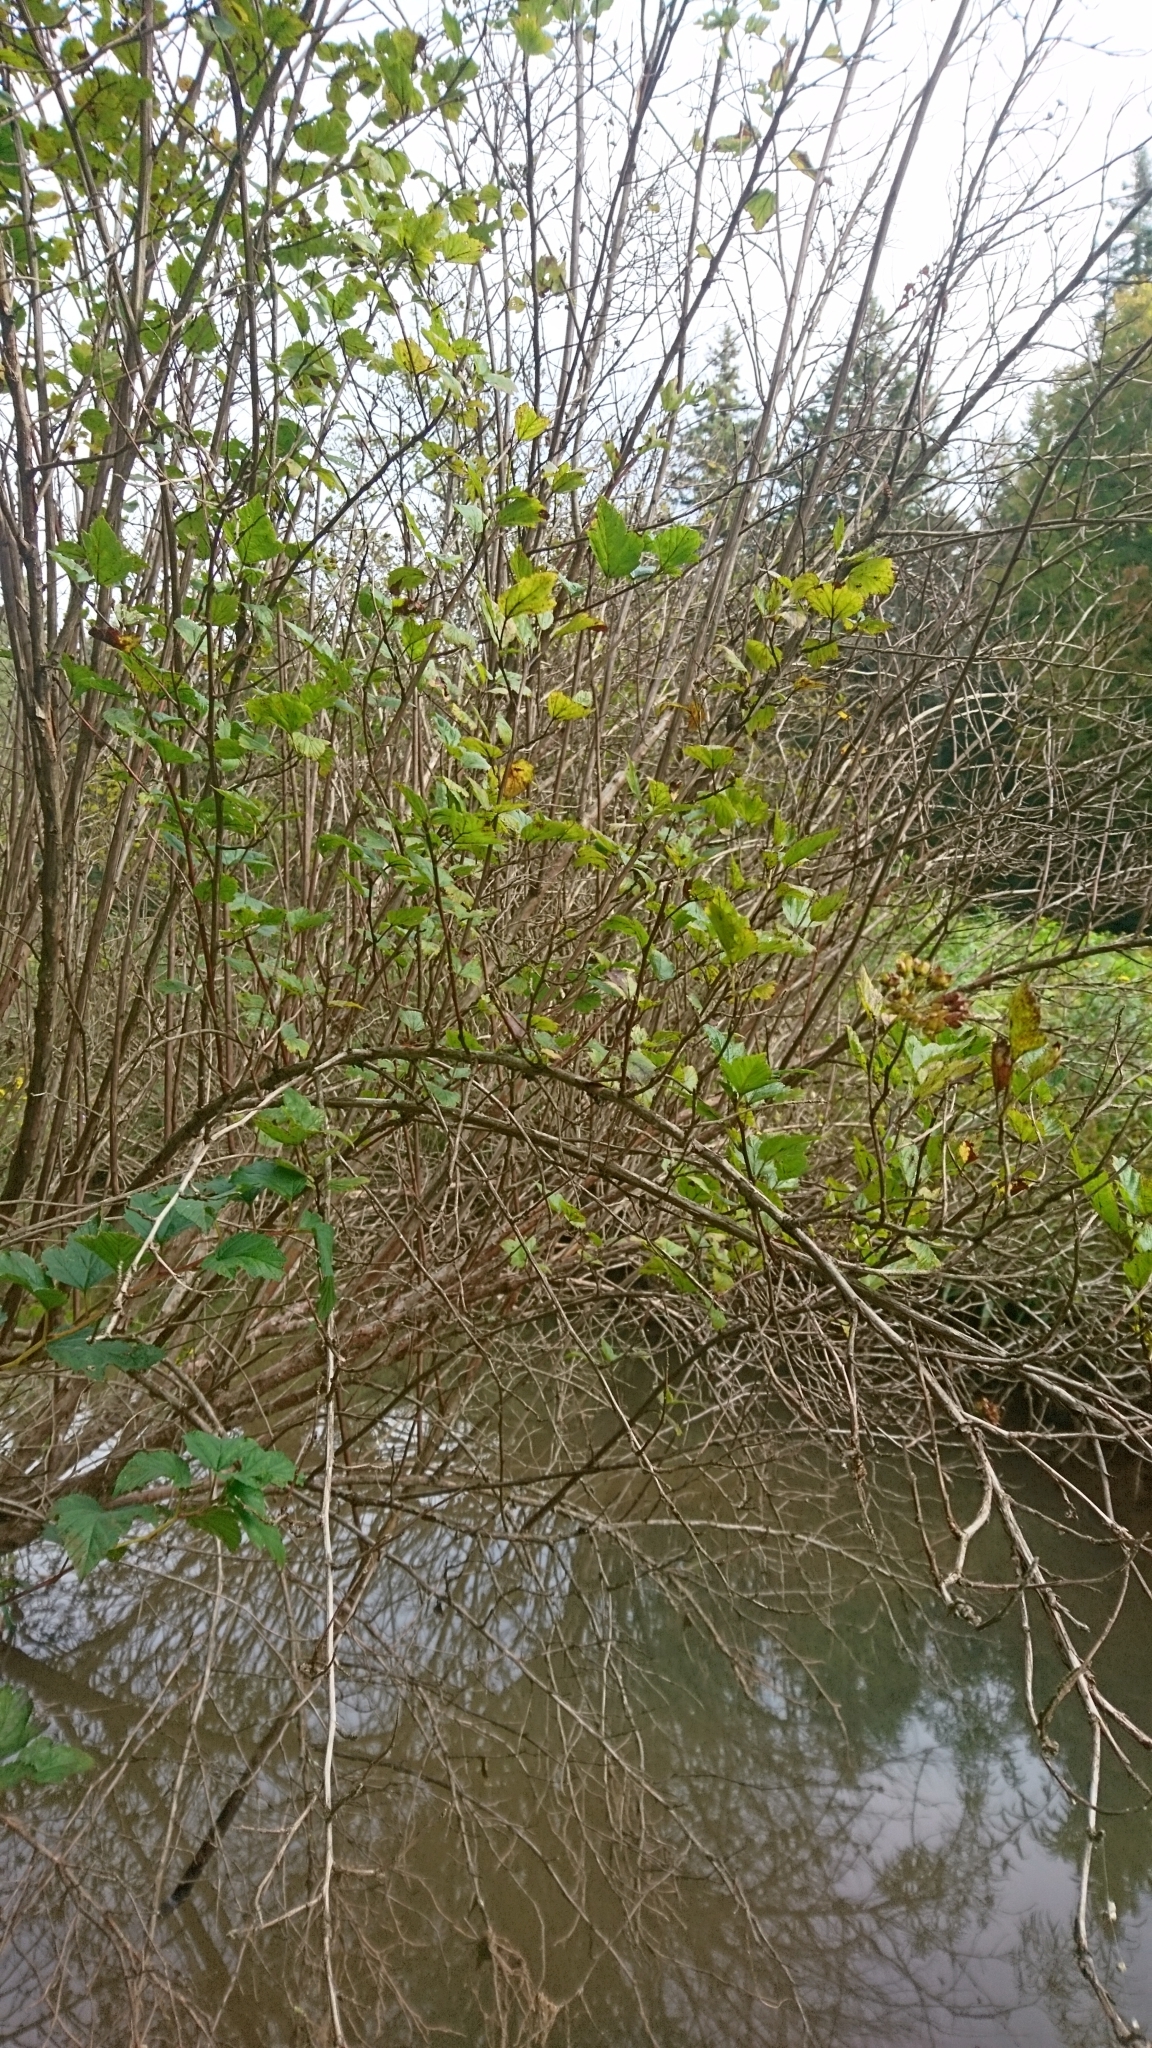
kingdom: Plantae
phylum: Tracheophyta
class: Magnoliopsida
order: Rosales
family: Rosaceae
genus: Physocarpus
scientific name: Physocarpus opulifolius
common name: Ninebark
